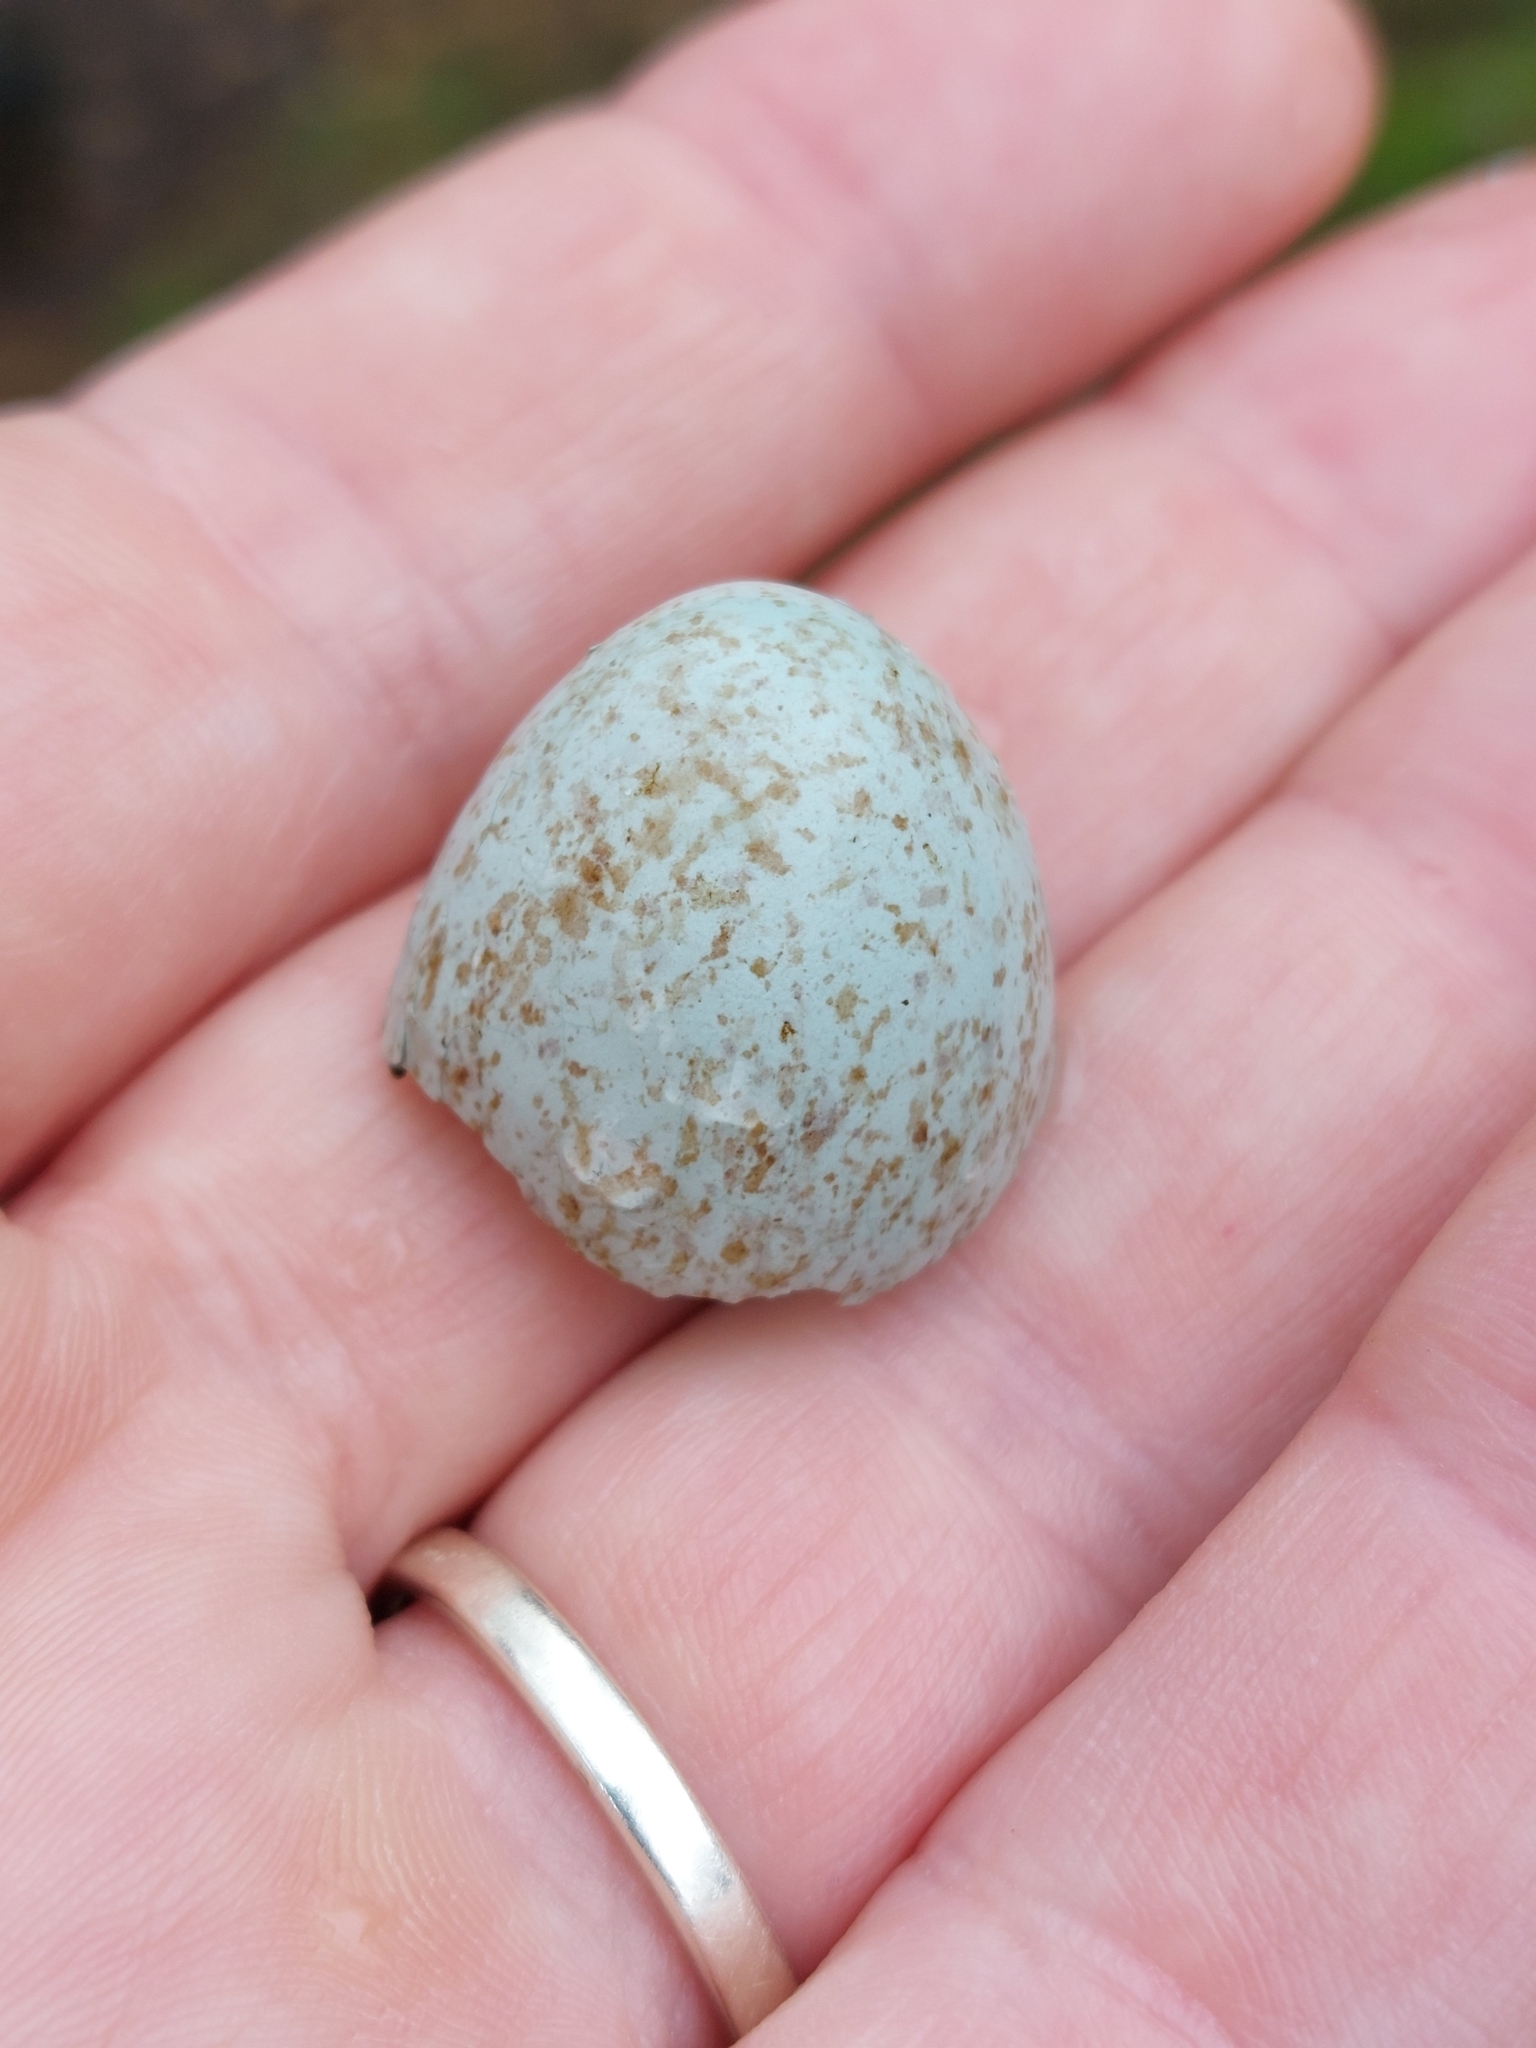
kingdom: Animalia
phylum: Chordata
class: Aves
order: Passeriformes
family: Turdidae
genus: Turdus
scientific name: Turdus merula
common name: Common blackbird
